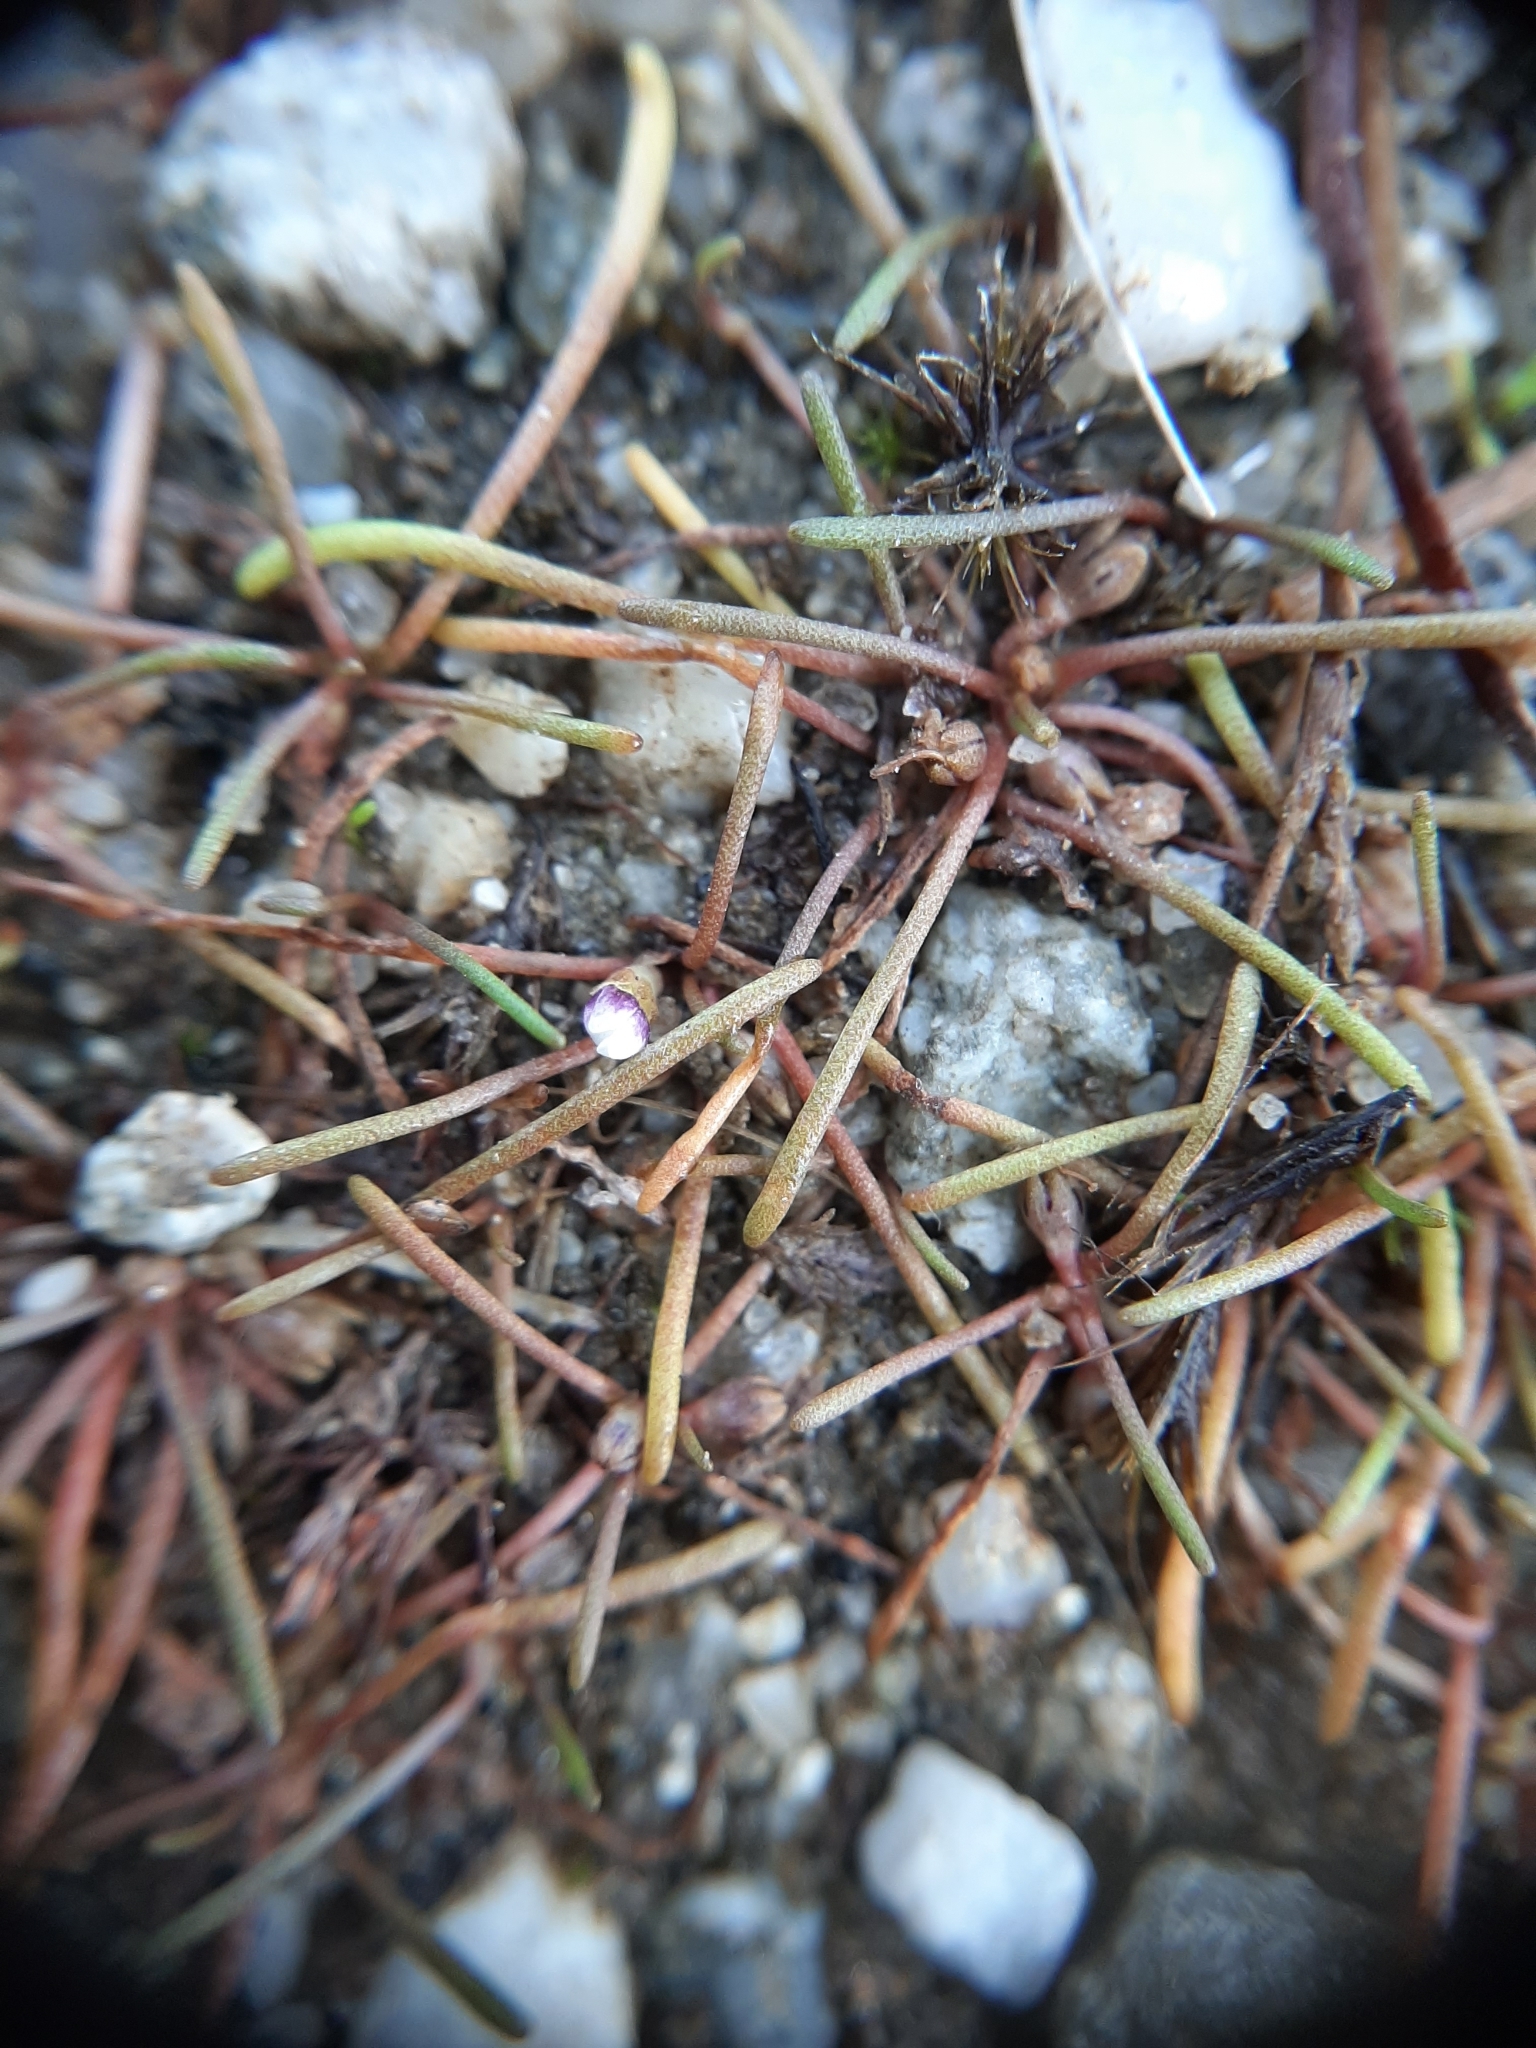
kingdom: Plantae
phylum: Tracheophyta
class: Magnoliopsida
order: Lamiales
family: Scrophulariaceae
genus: Limosella
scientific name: Limosella australis
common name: Welsh mudwort
